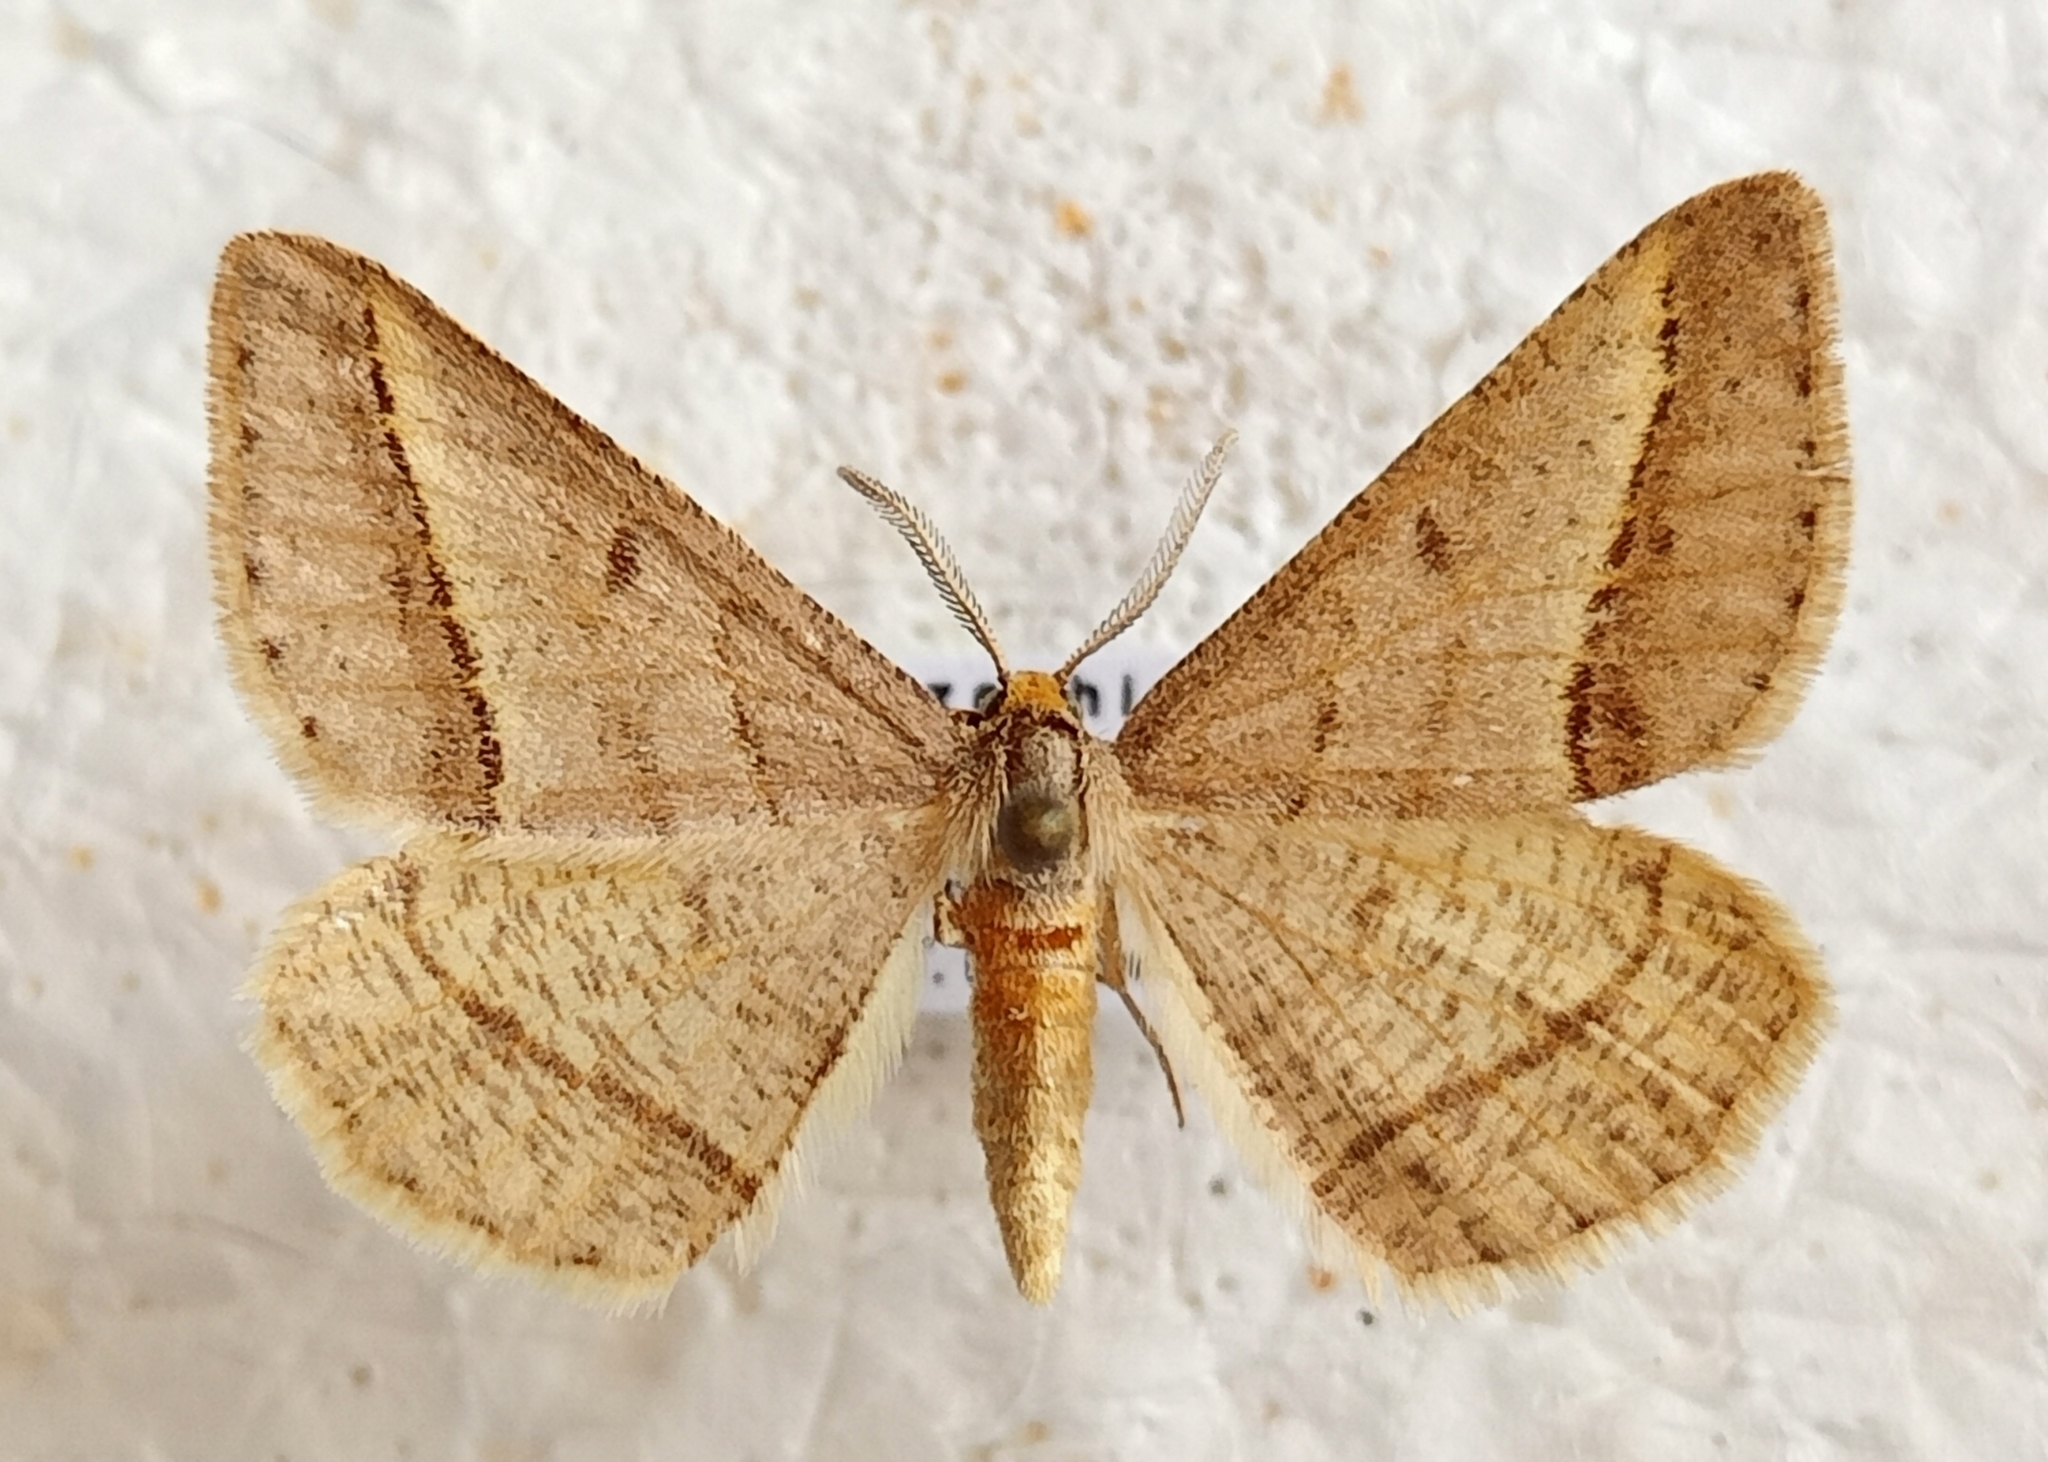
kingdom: Animalia
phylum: Arthropoda
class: Insecta
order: Lepidoptera
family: Geometridae
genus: Tephrina
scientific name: Tephrina arenacearia
